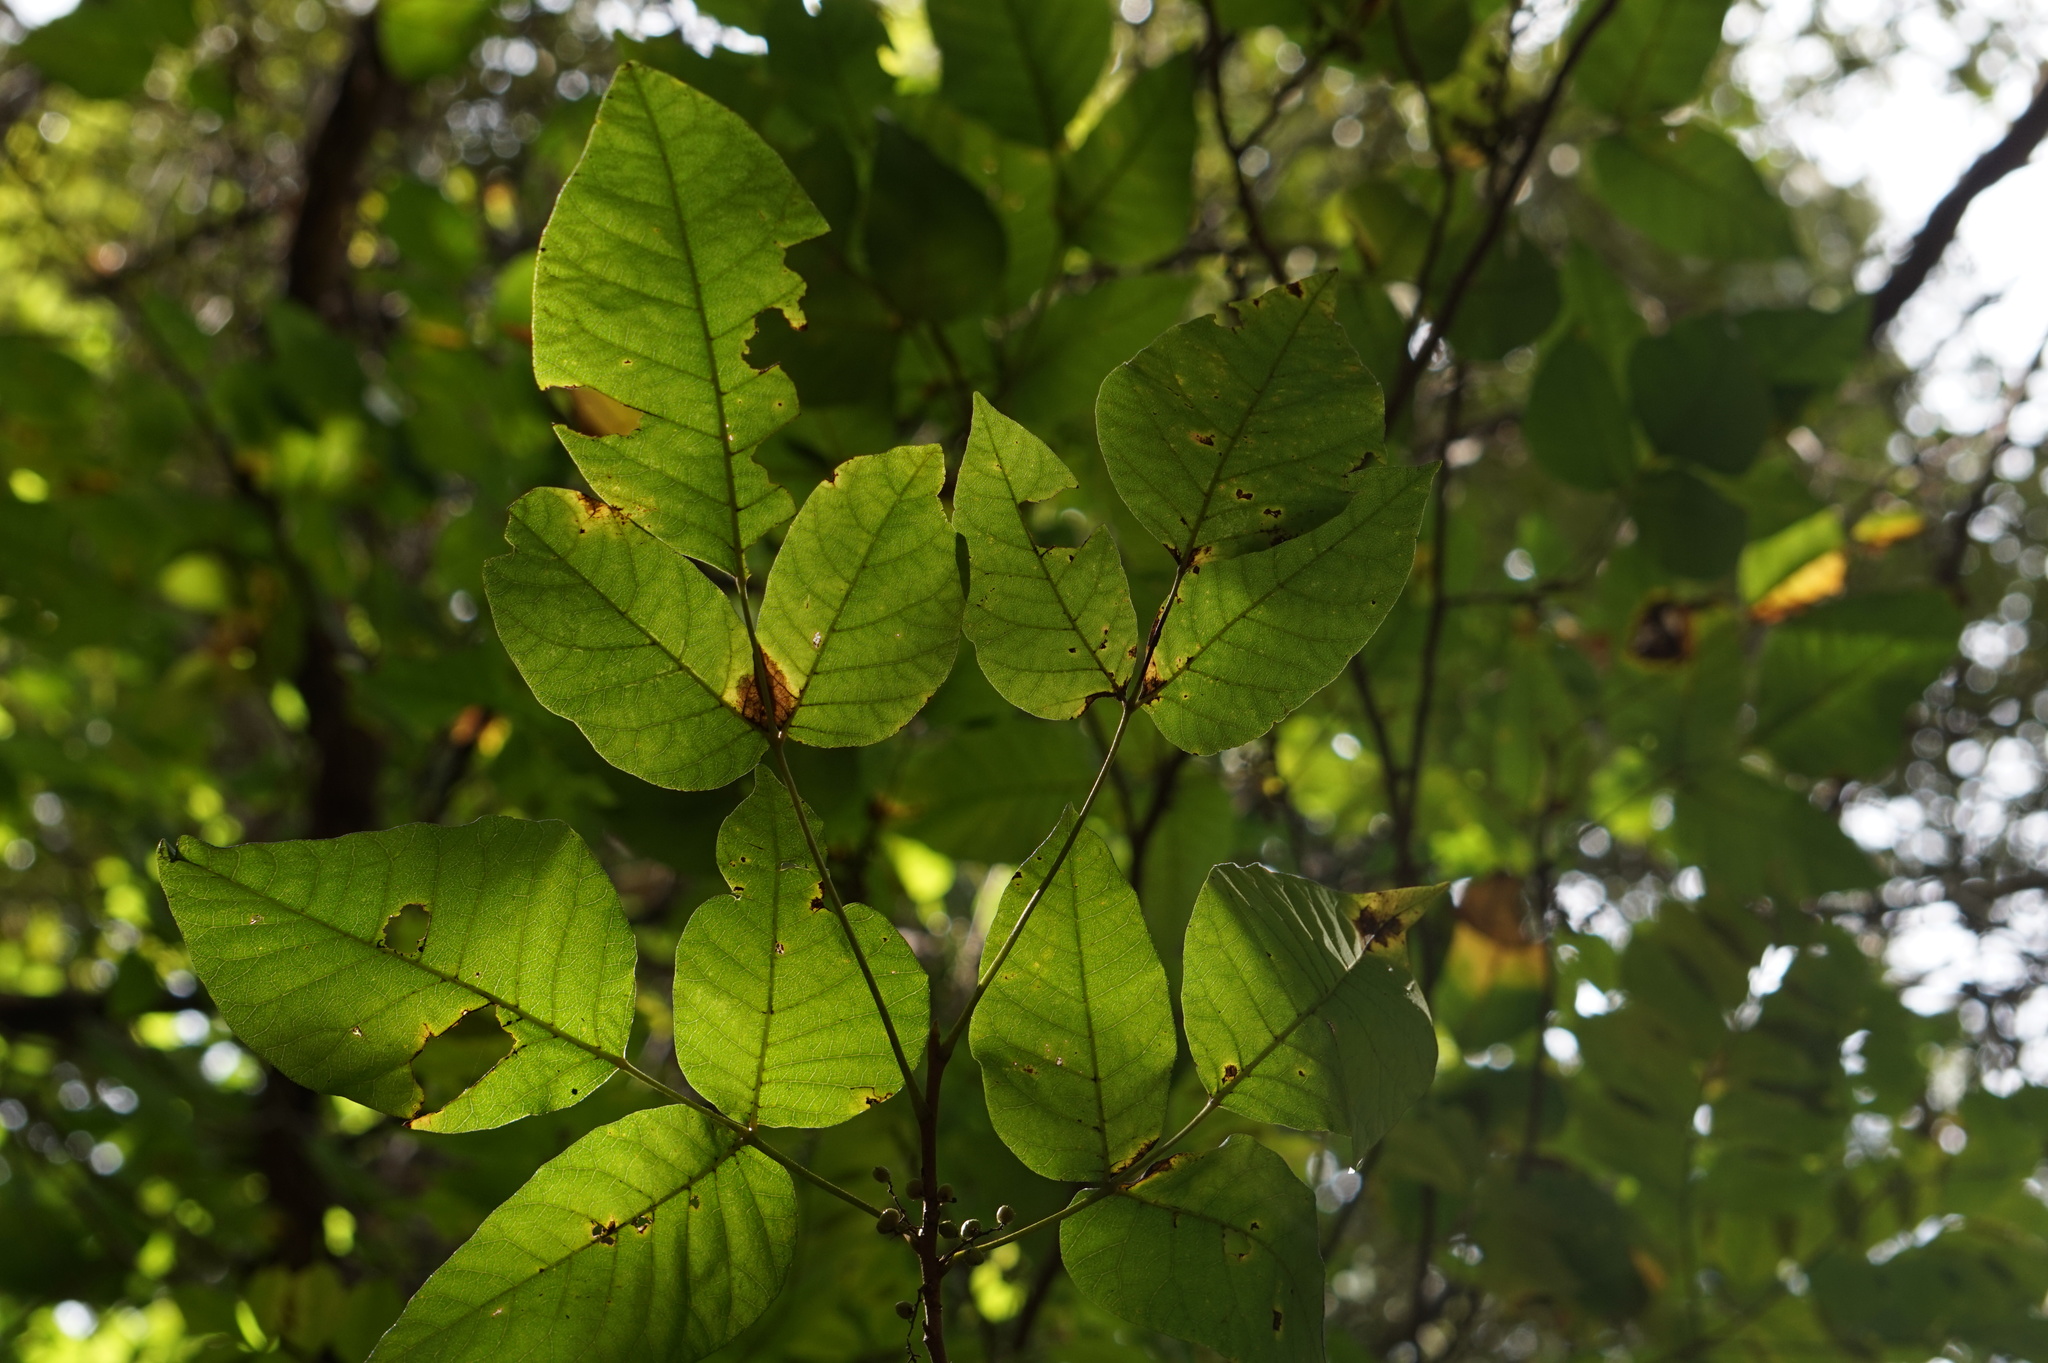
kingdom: Plantae
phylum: Tracheophyta
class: Magnoliopsida
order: Sapindales
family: Anacardiaceae
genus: Toxicodendron
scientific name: Toxicodendron radicans
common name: Poison ivy
